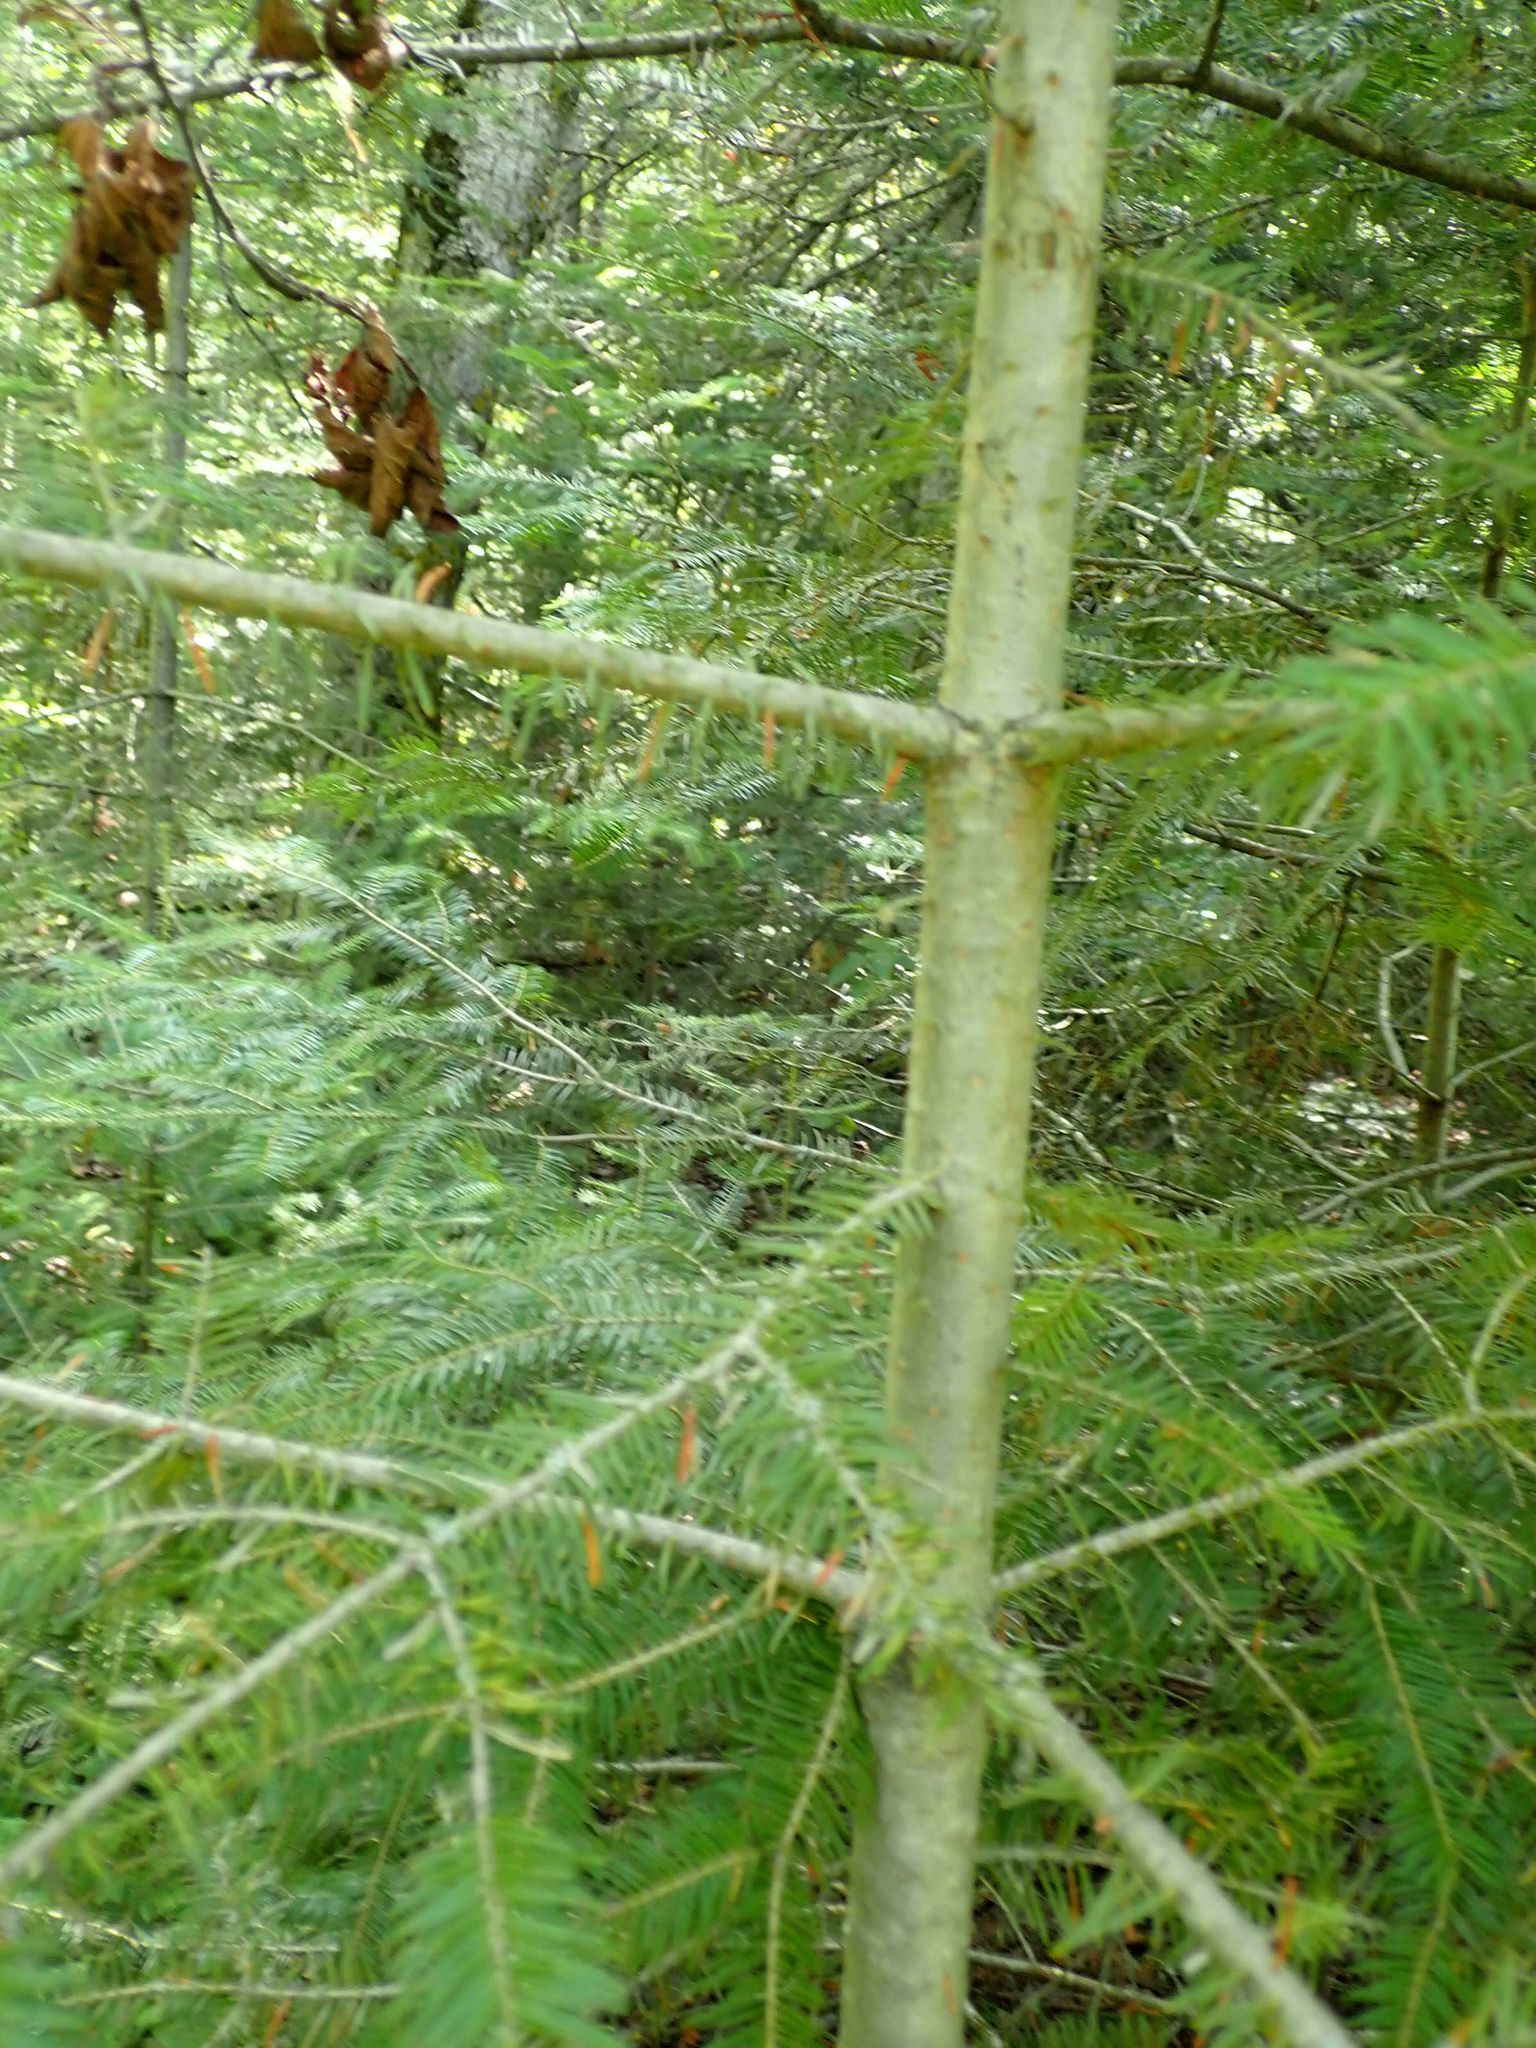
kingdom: Plantae
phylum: Tracheophyta
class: Pinopsida
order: Pinales
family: Pinaceae
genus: Abies
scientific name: Abies balsamea
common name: Balsam fir
